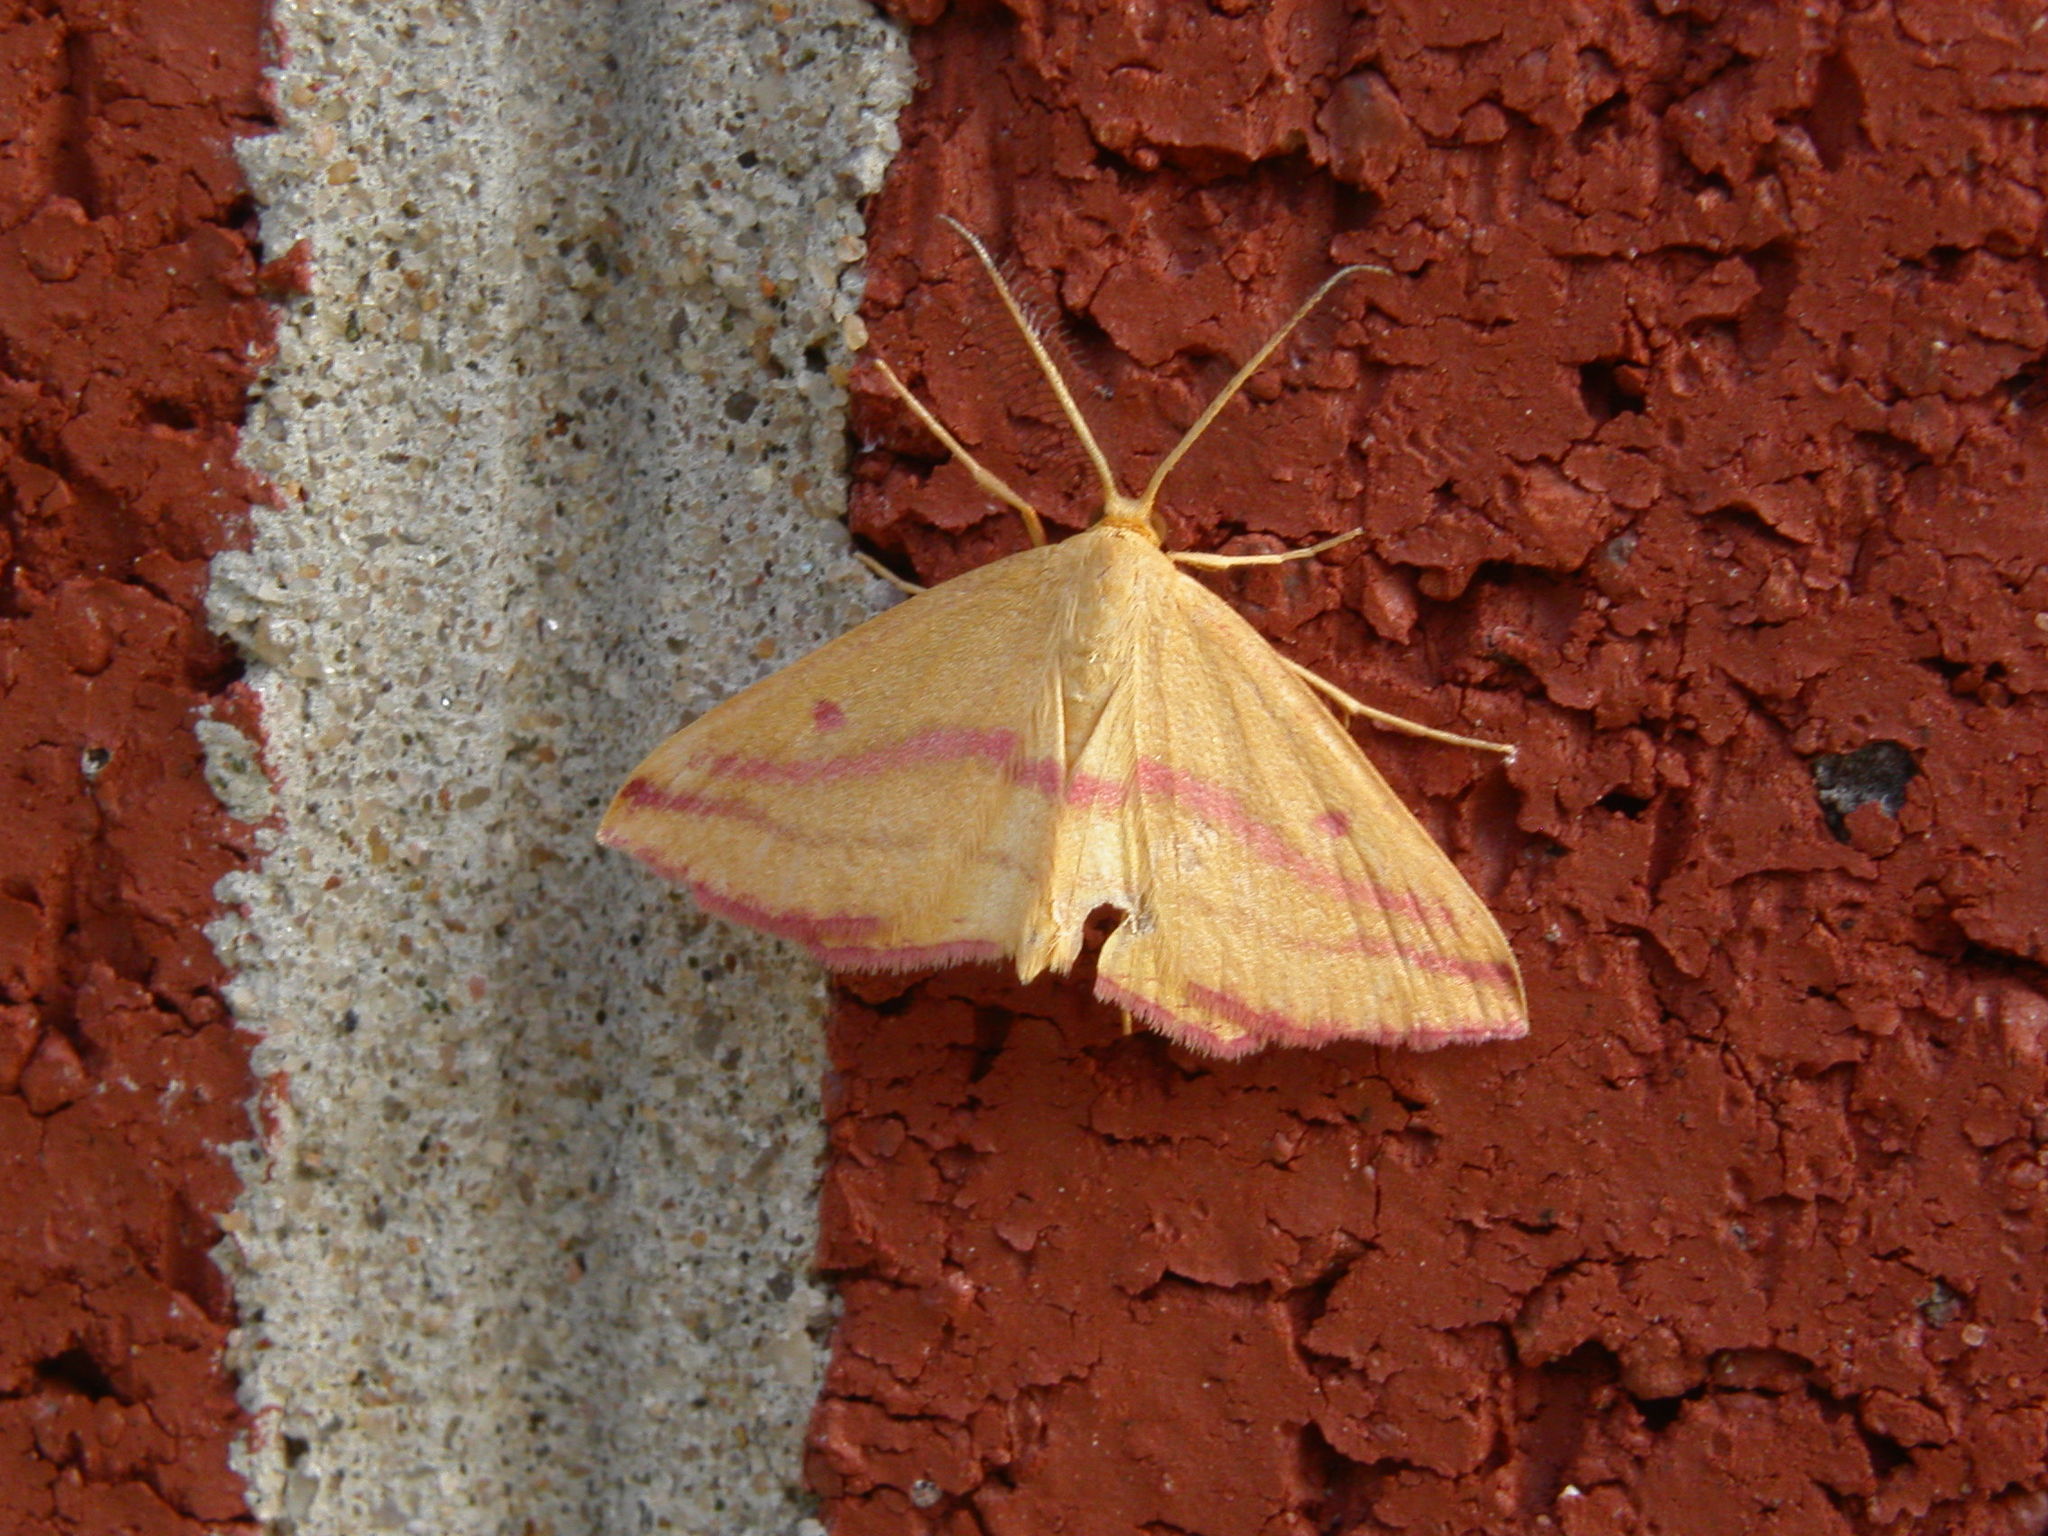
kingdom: Animalia
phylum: Arthropoda
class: Insecta
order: Lepidoptera
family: Geometridae
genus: Haematopis
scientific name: Haematopis grataria
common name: Chickweed geometer
